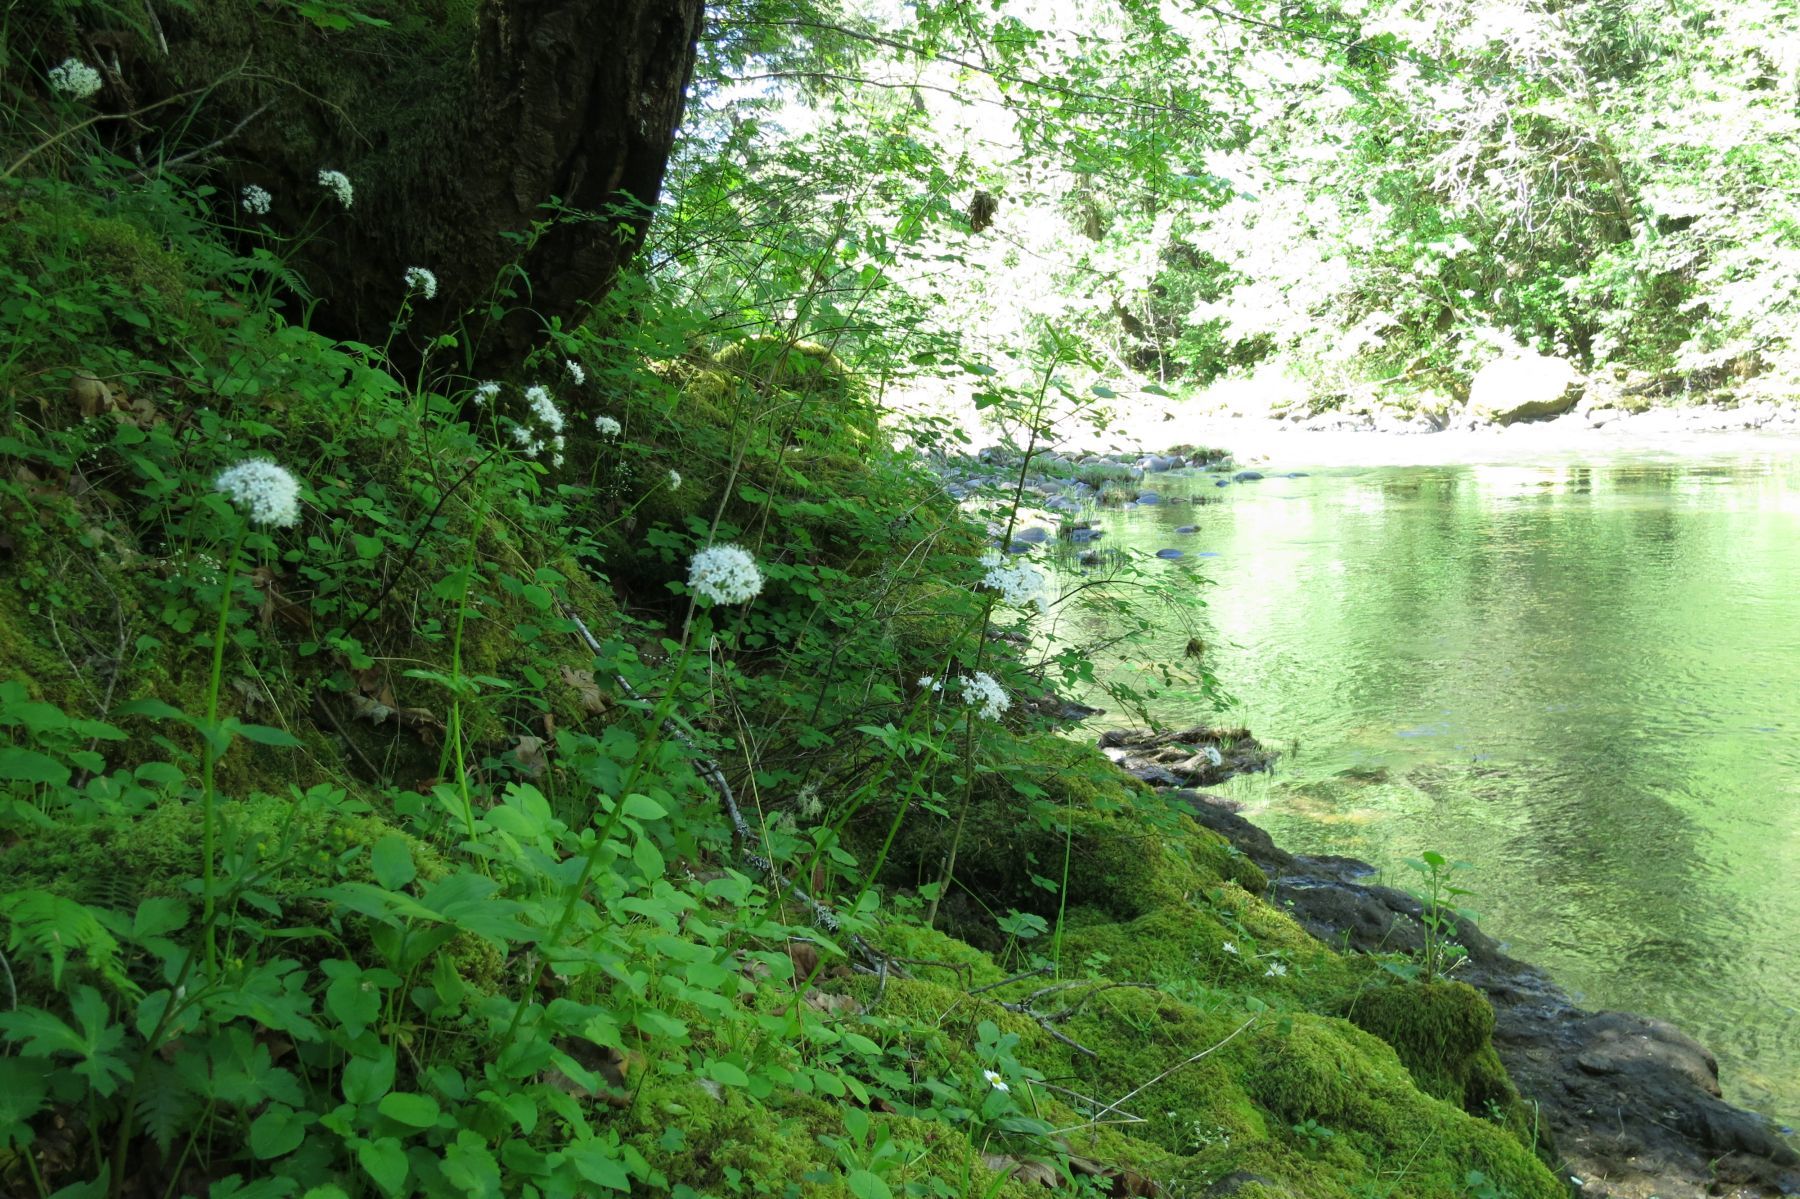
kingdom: Plantae
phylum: Tracheophyta
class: Magnoliopsida
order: Dipsacales
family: Caprifoliaceae
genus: Valeriana
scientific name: Valeriana scouleri
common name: Scouler's valerian
